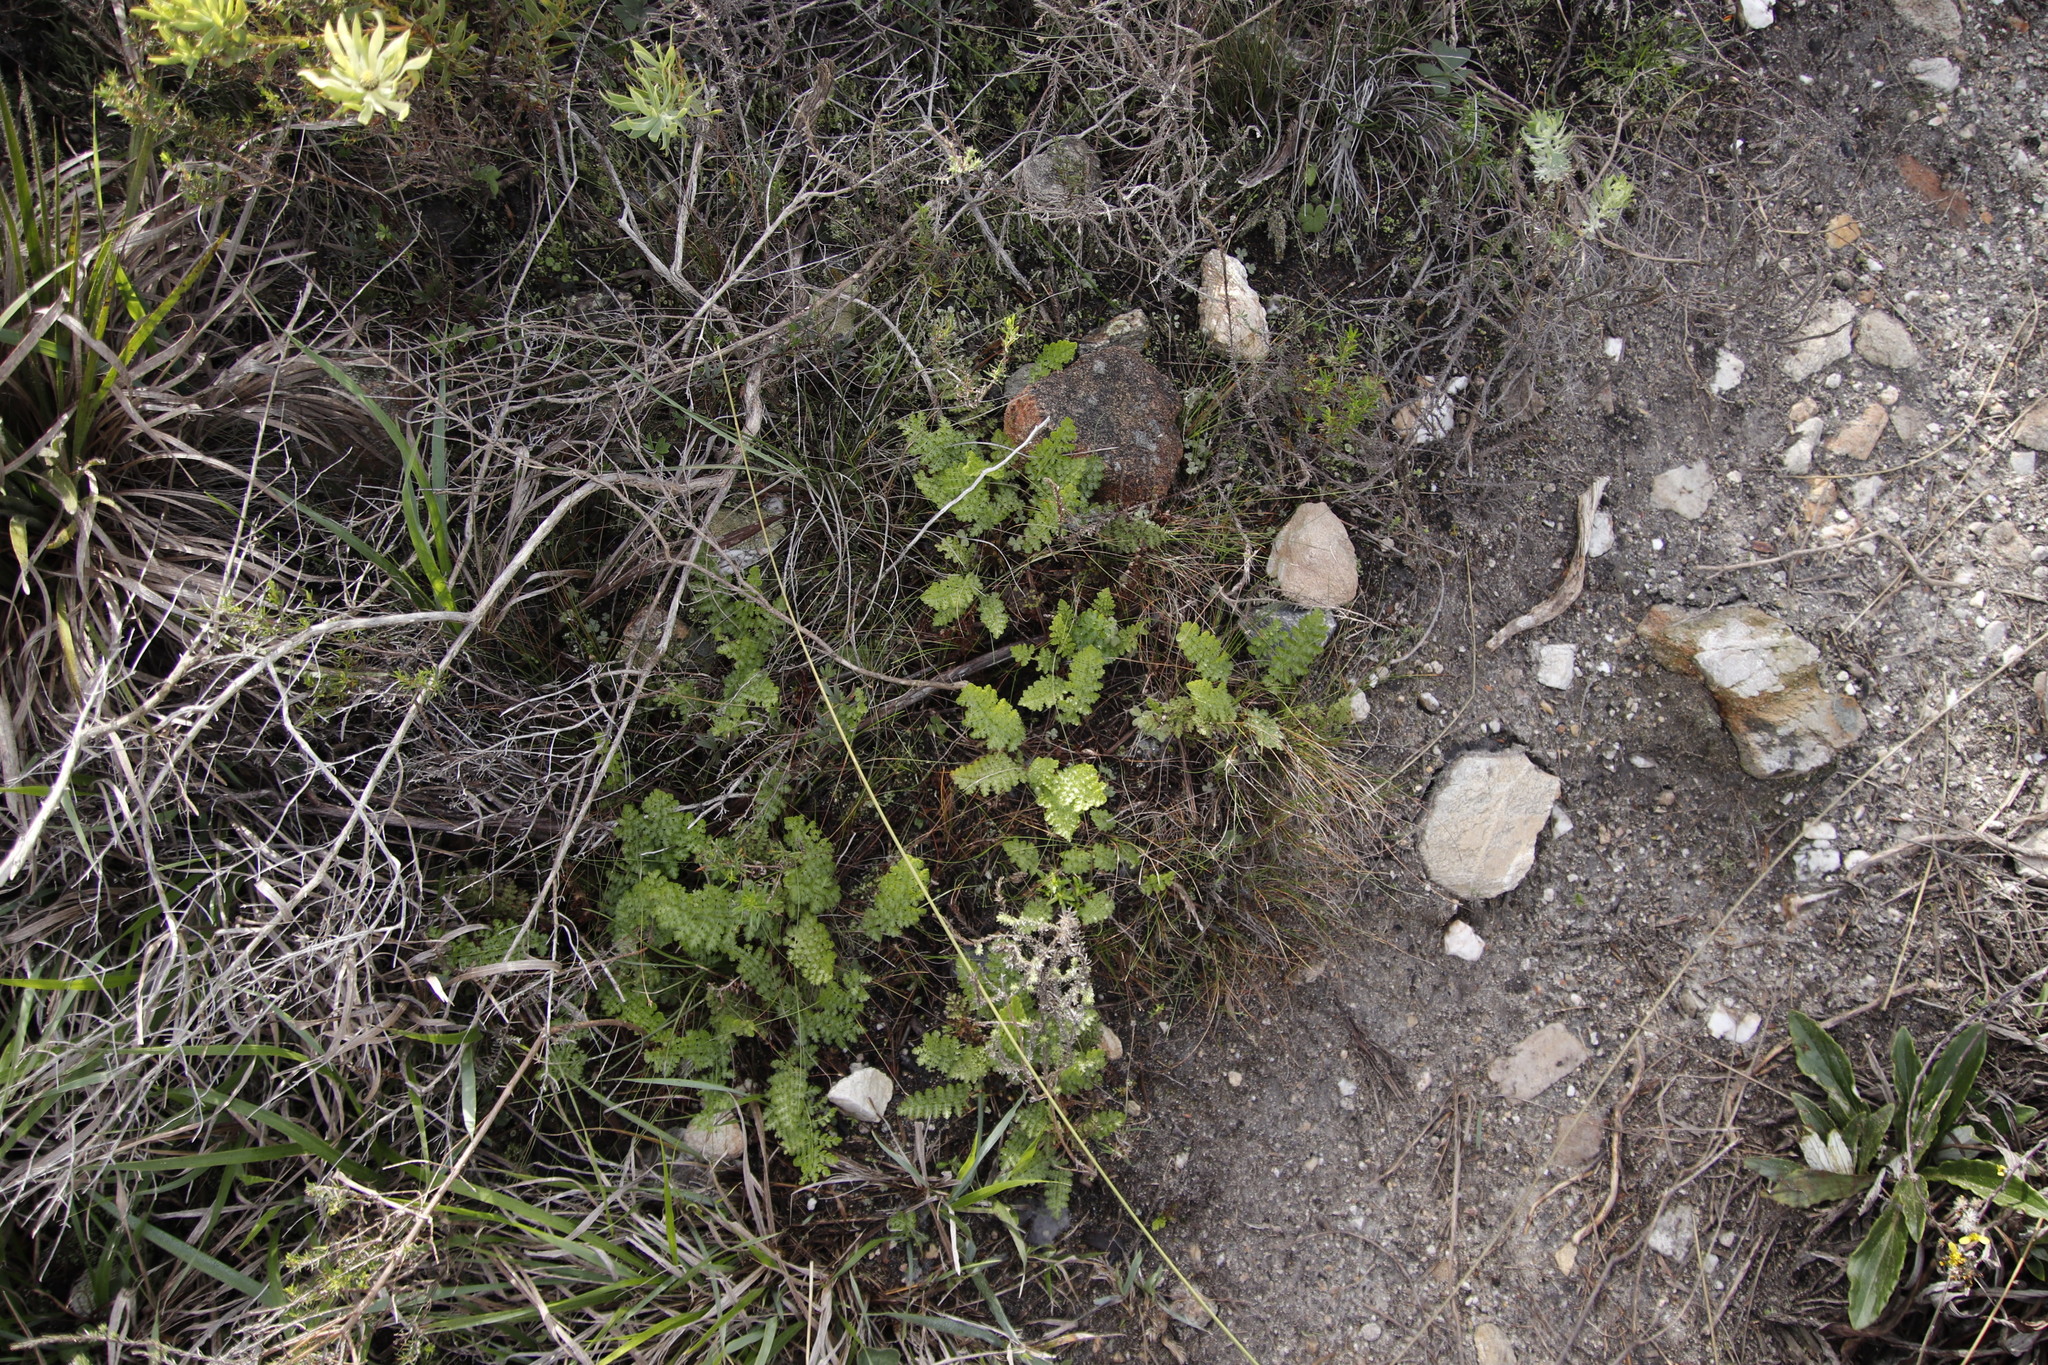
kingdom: Plantae
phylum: Tracheophyta
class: Polypodiopsida
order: Schizaeales
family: Anemiaceae
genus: Anemia
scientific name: Anemia caffrorum
